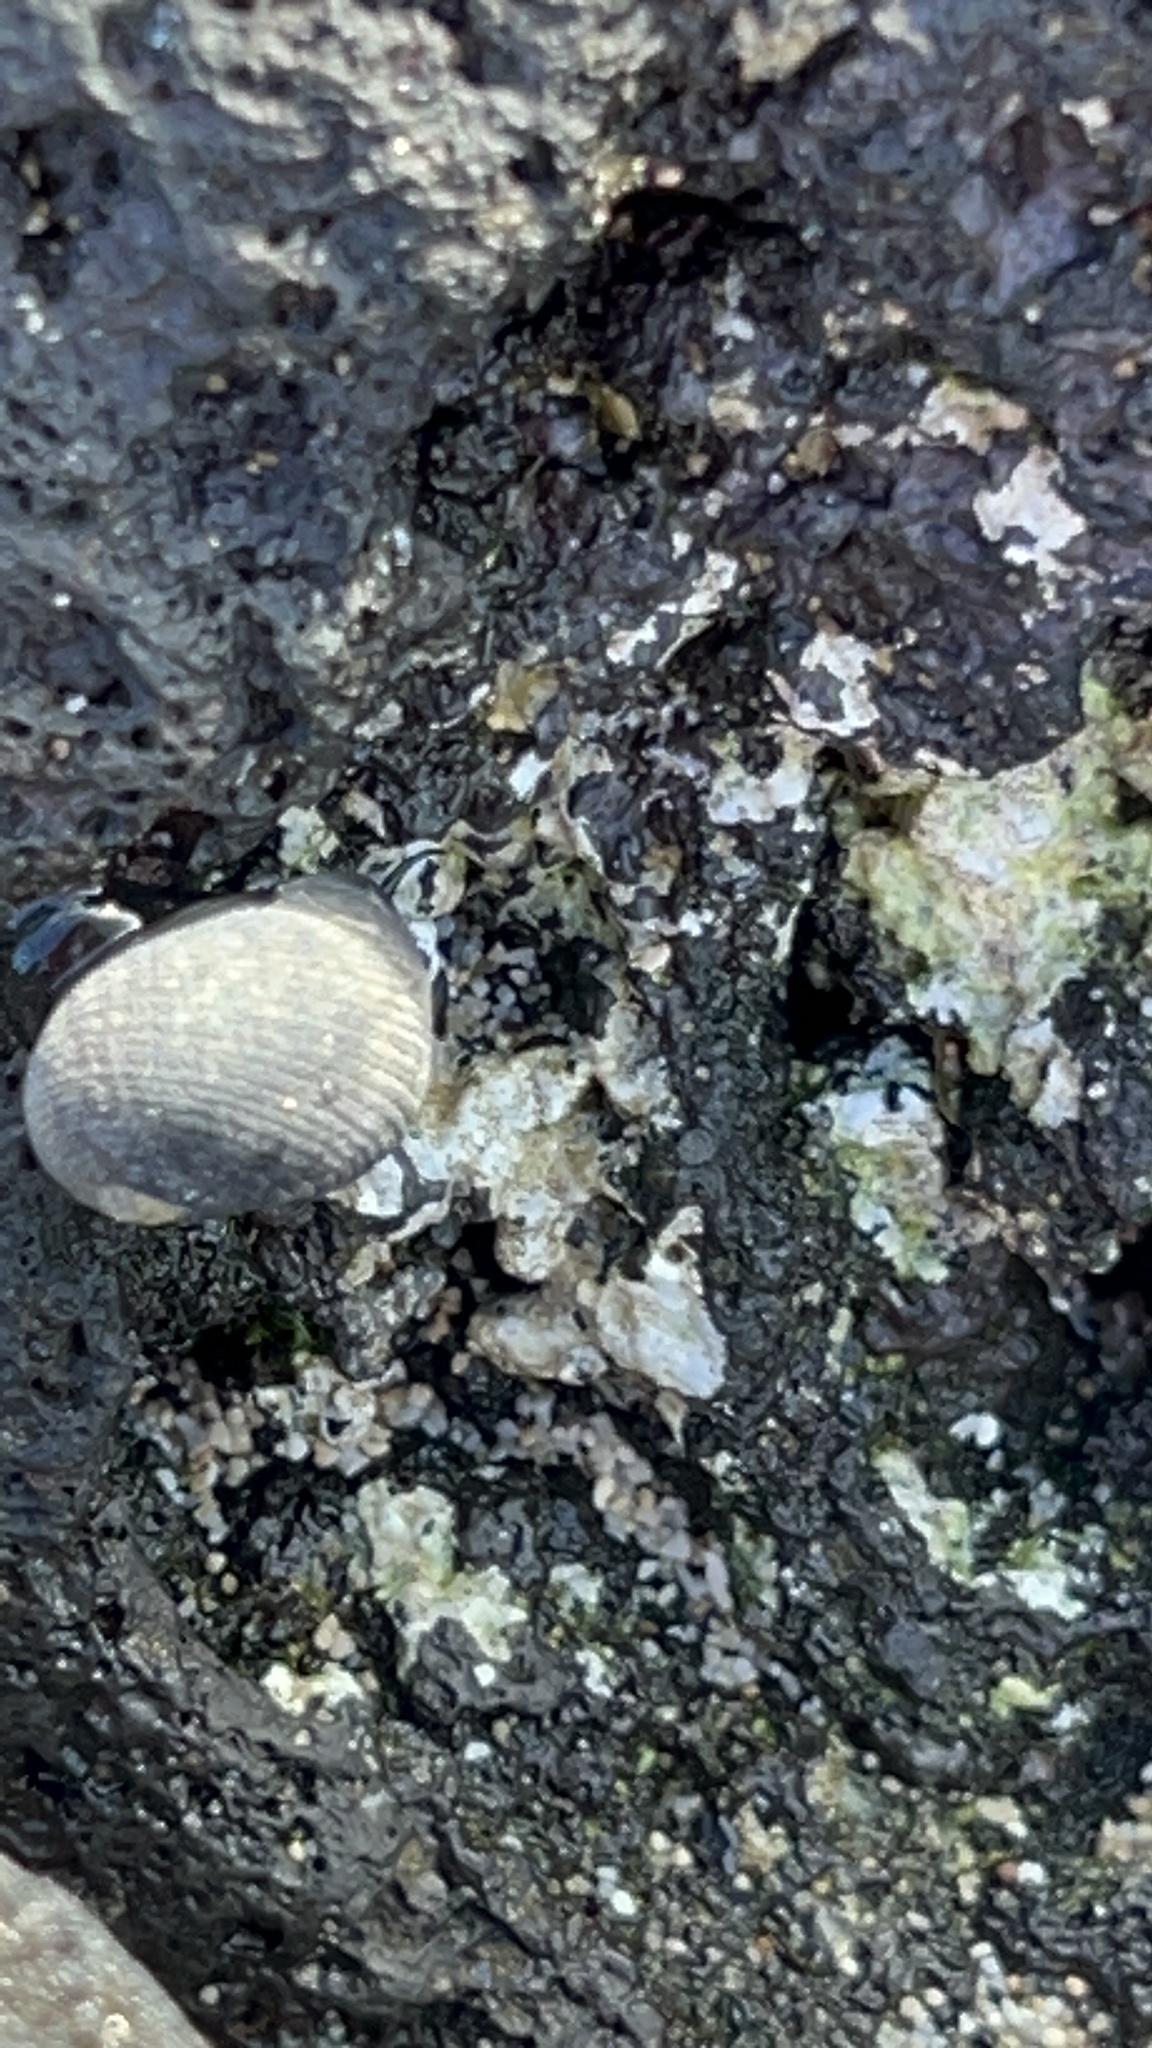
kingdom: Animalia
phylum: Mollusca
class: Gastropoda
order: Cycloneritida
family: Neritidae
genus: Nerita
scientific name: Nerita picea
